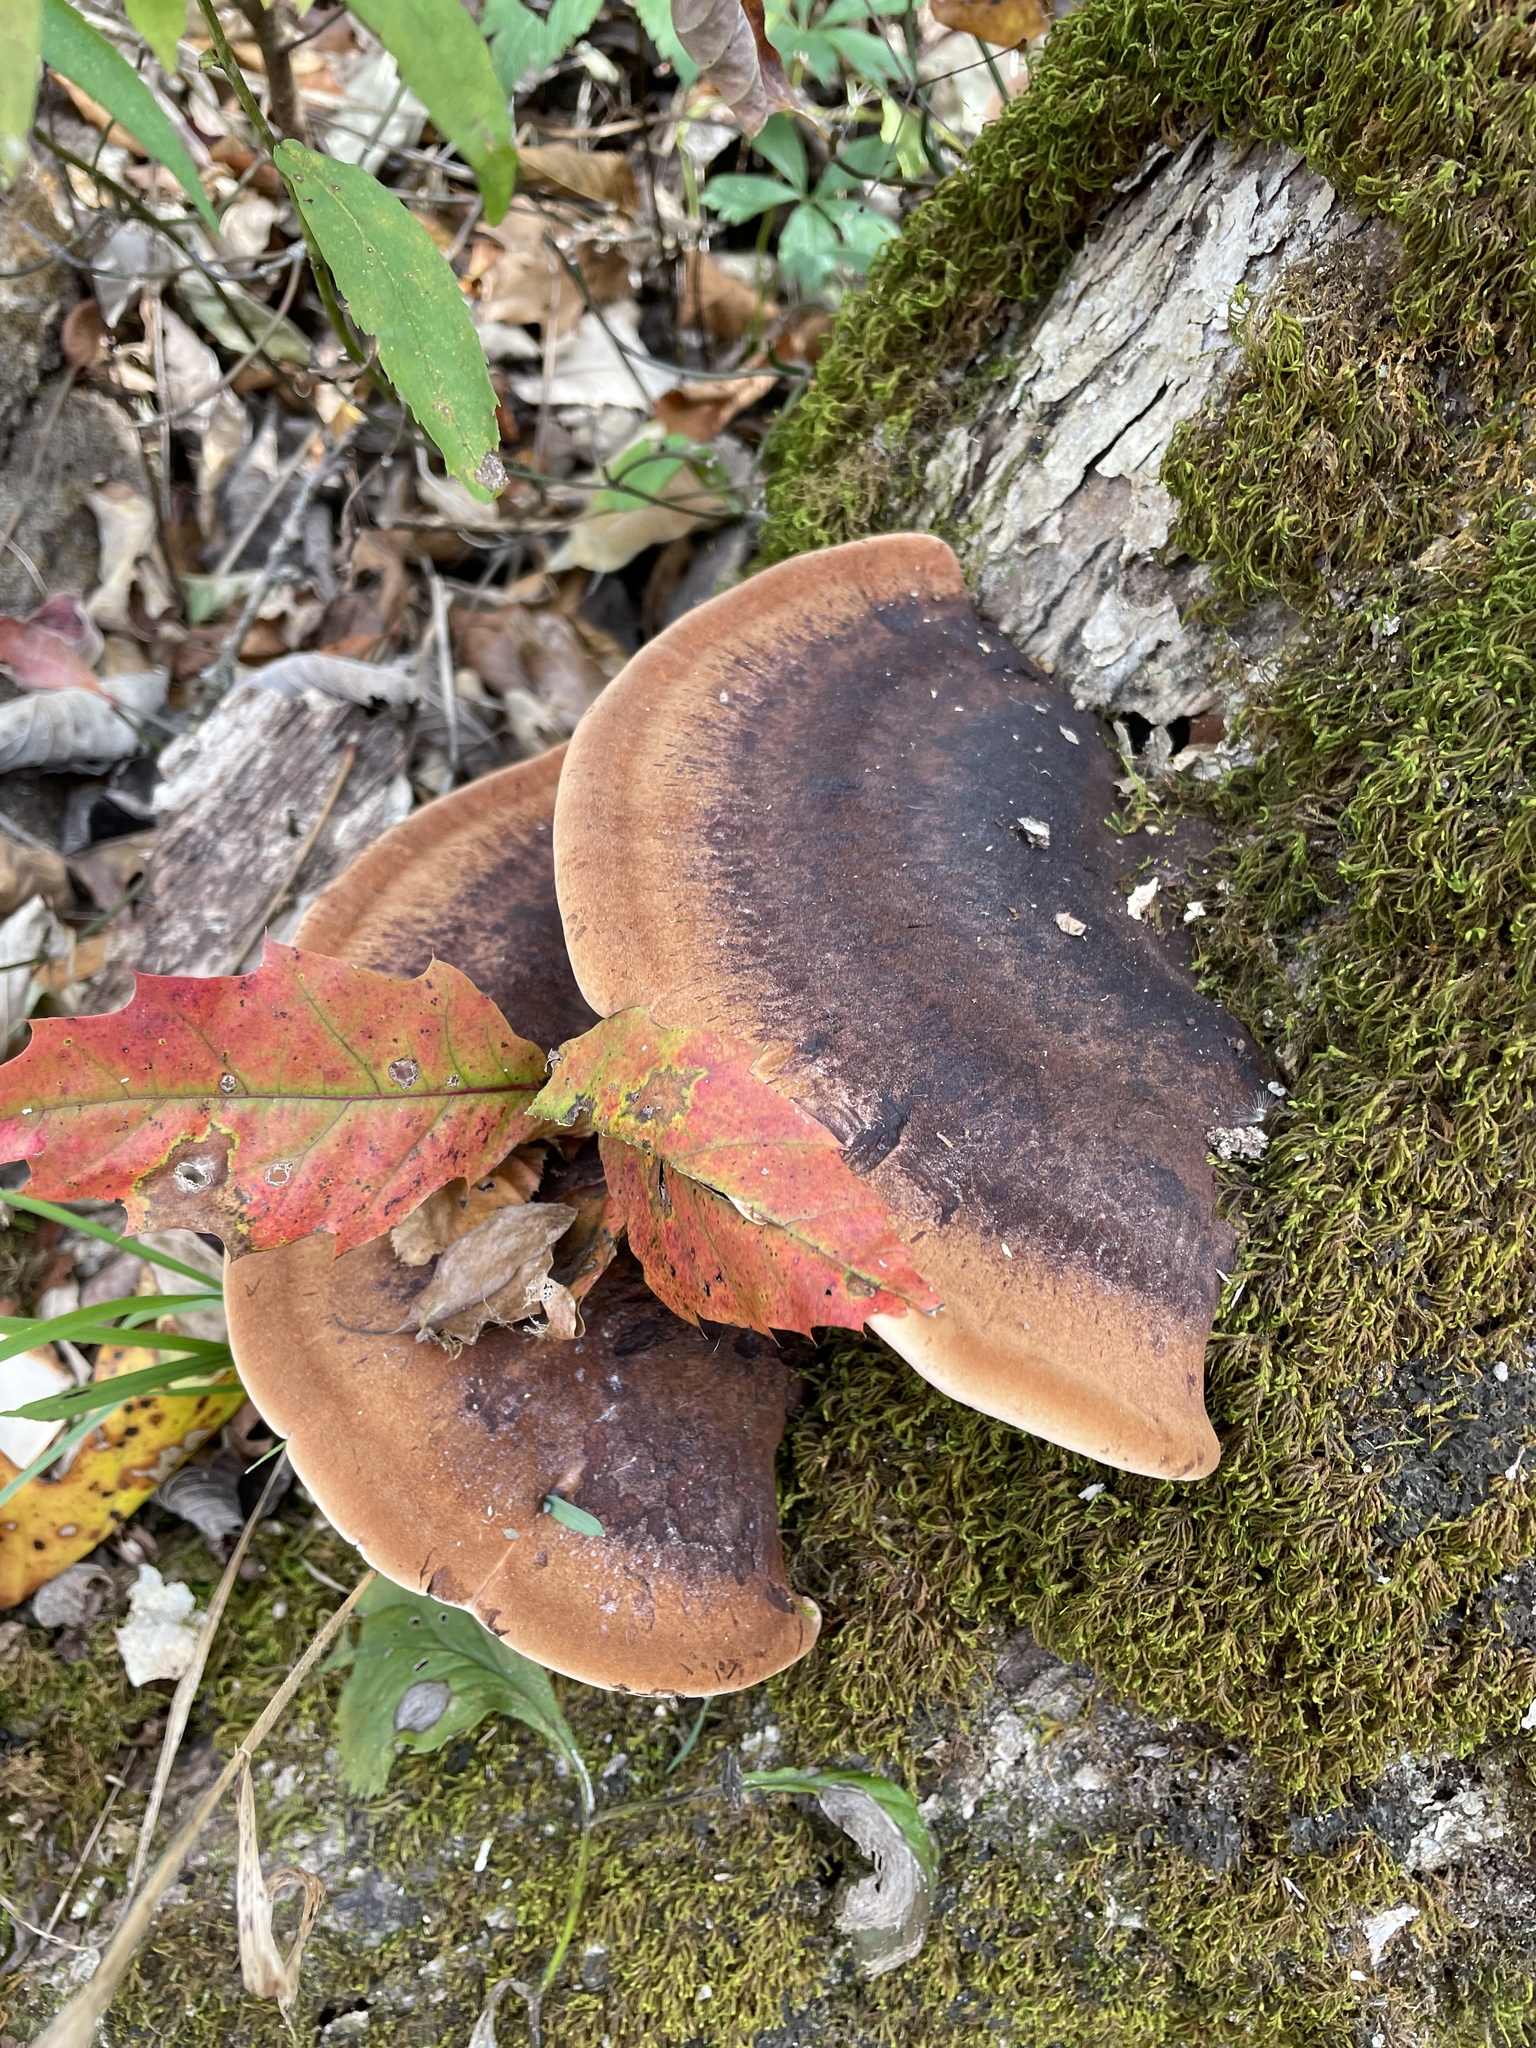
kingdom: Fungi
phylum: Basidiomycota
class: Agaricomycetes
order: Polyporales
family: Ischnodermataceae
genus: Ischnoderma
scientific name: Ischnoderma resinosum
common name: Resinous polypore
